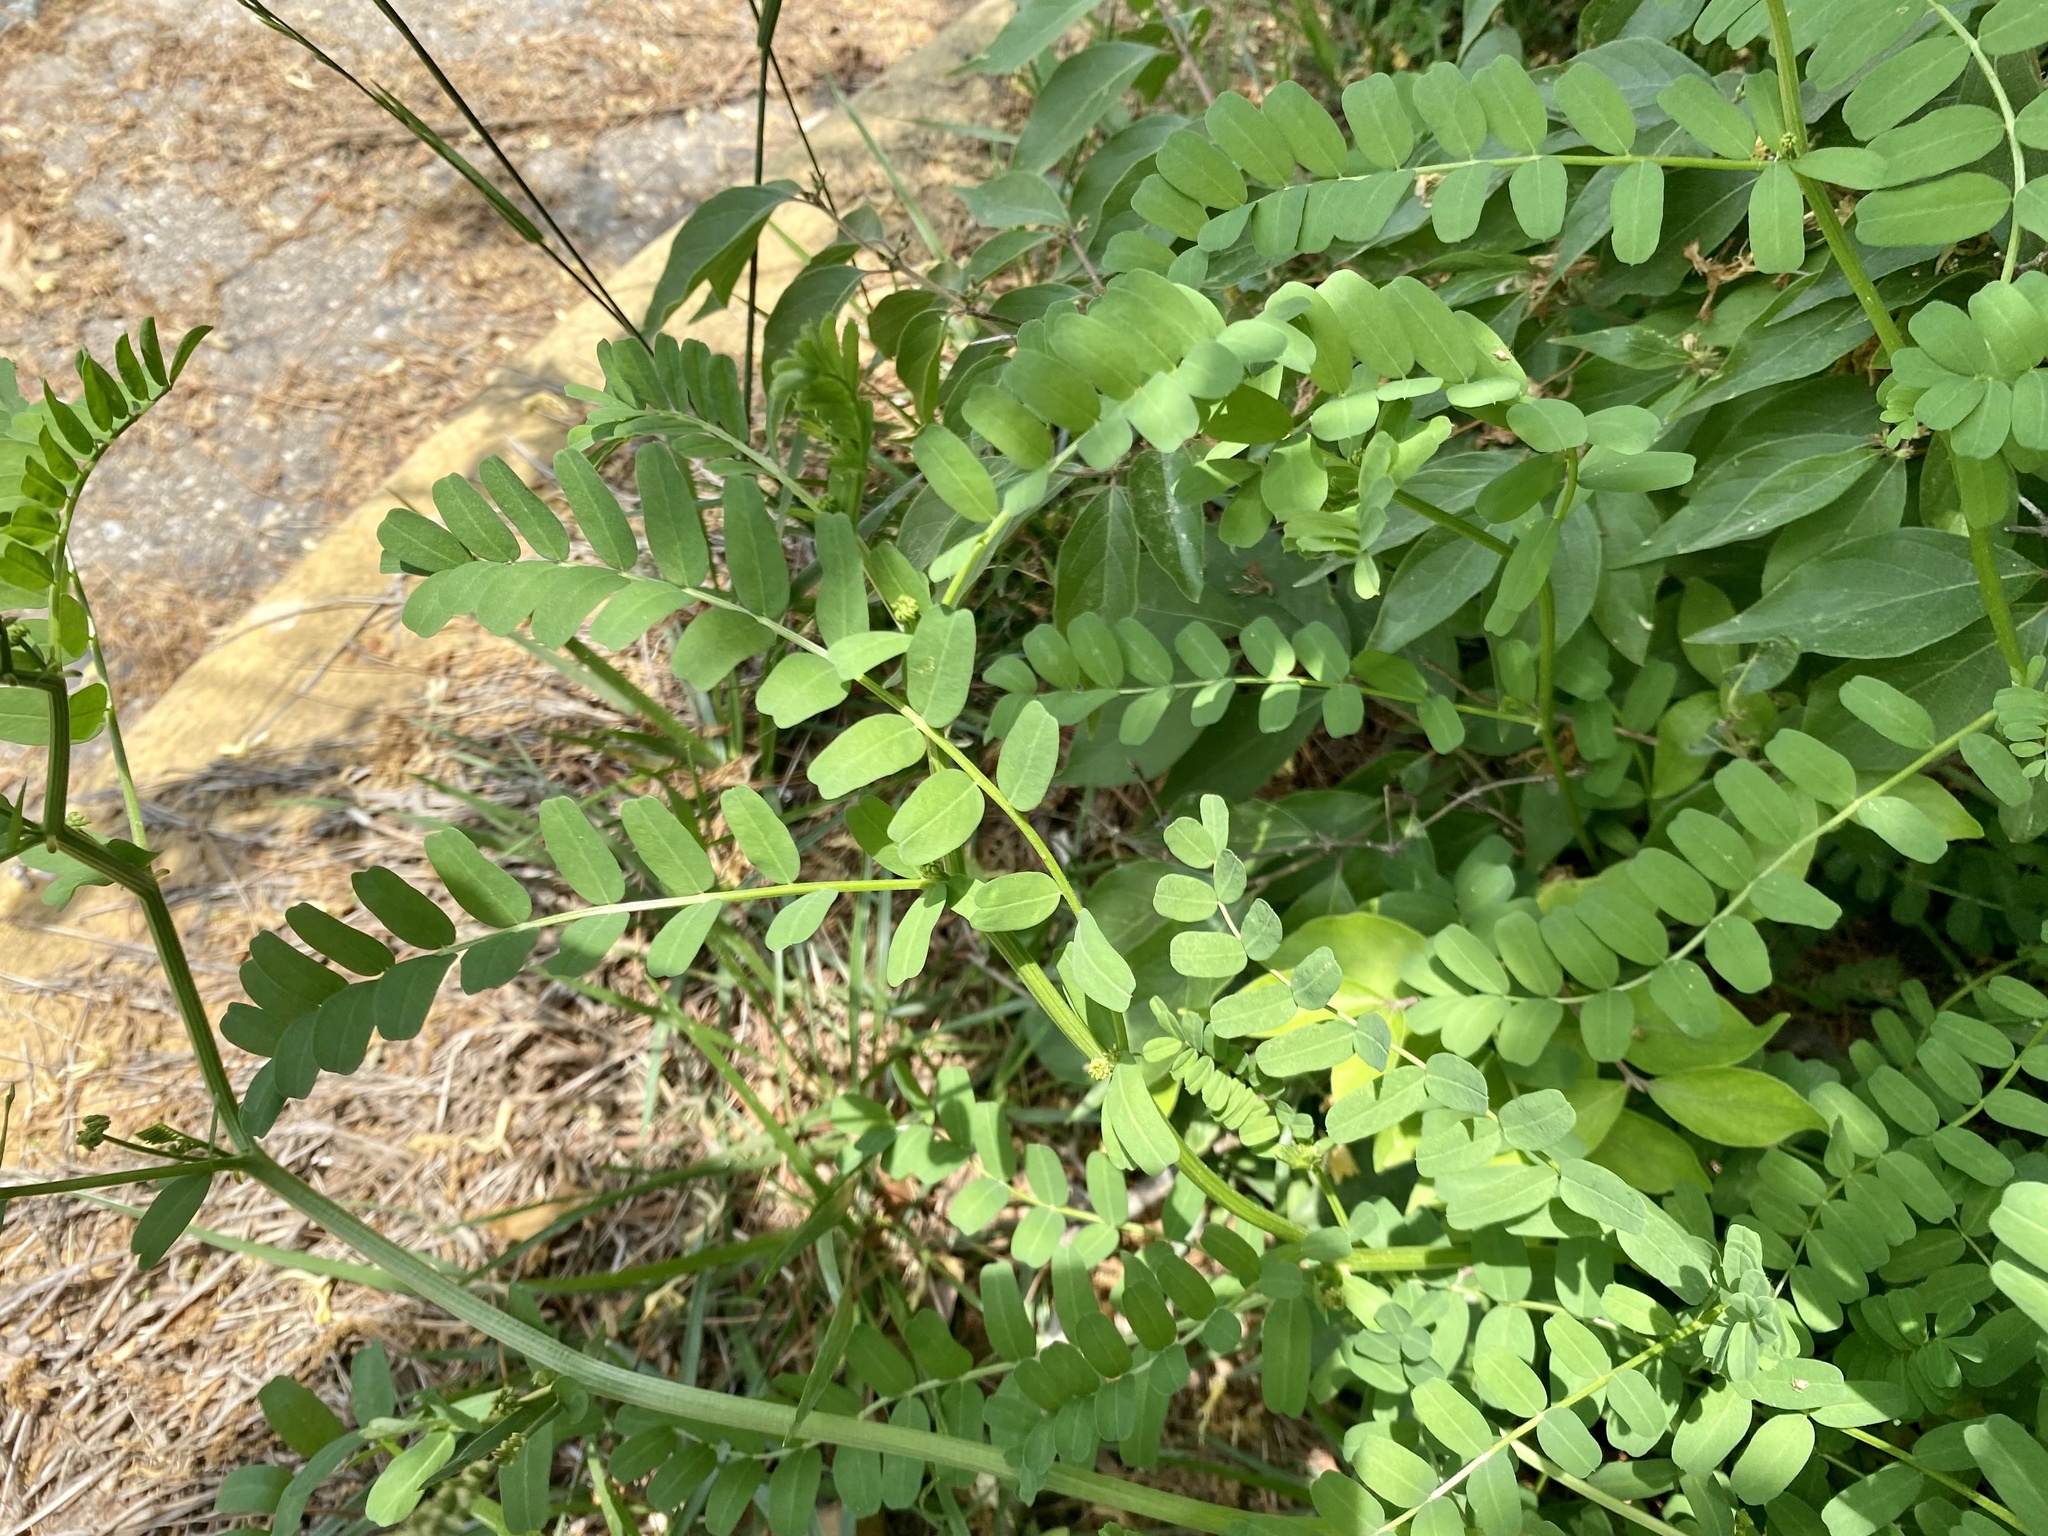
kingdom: Plantae
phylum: Tracheophyta
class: Magnoliopsida
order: Fabales
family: Fabaceae
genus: Coronilla
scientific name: Coronilla varia
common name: Crownvetch
